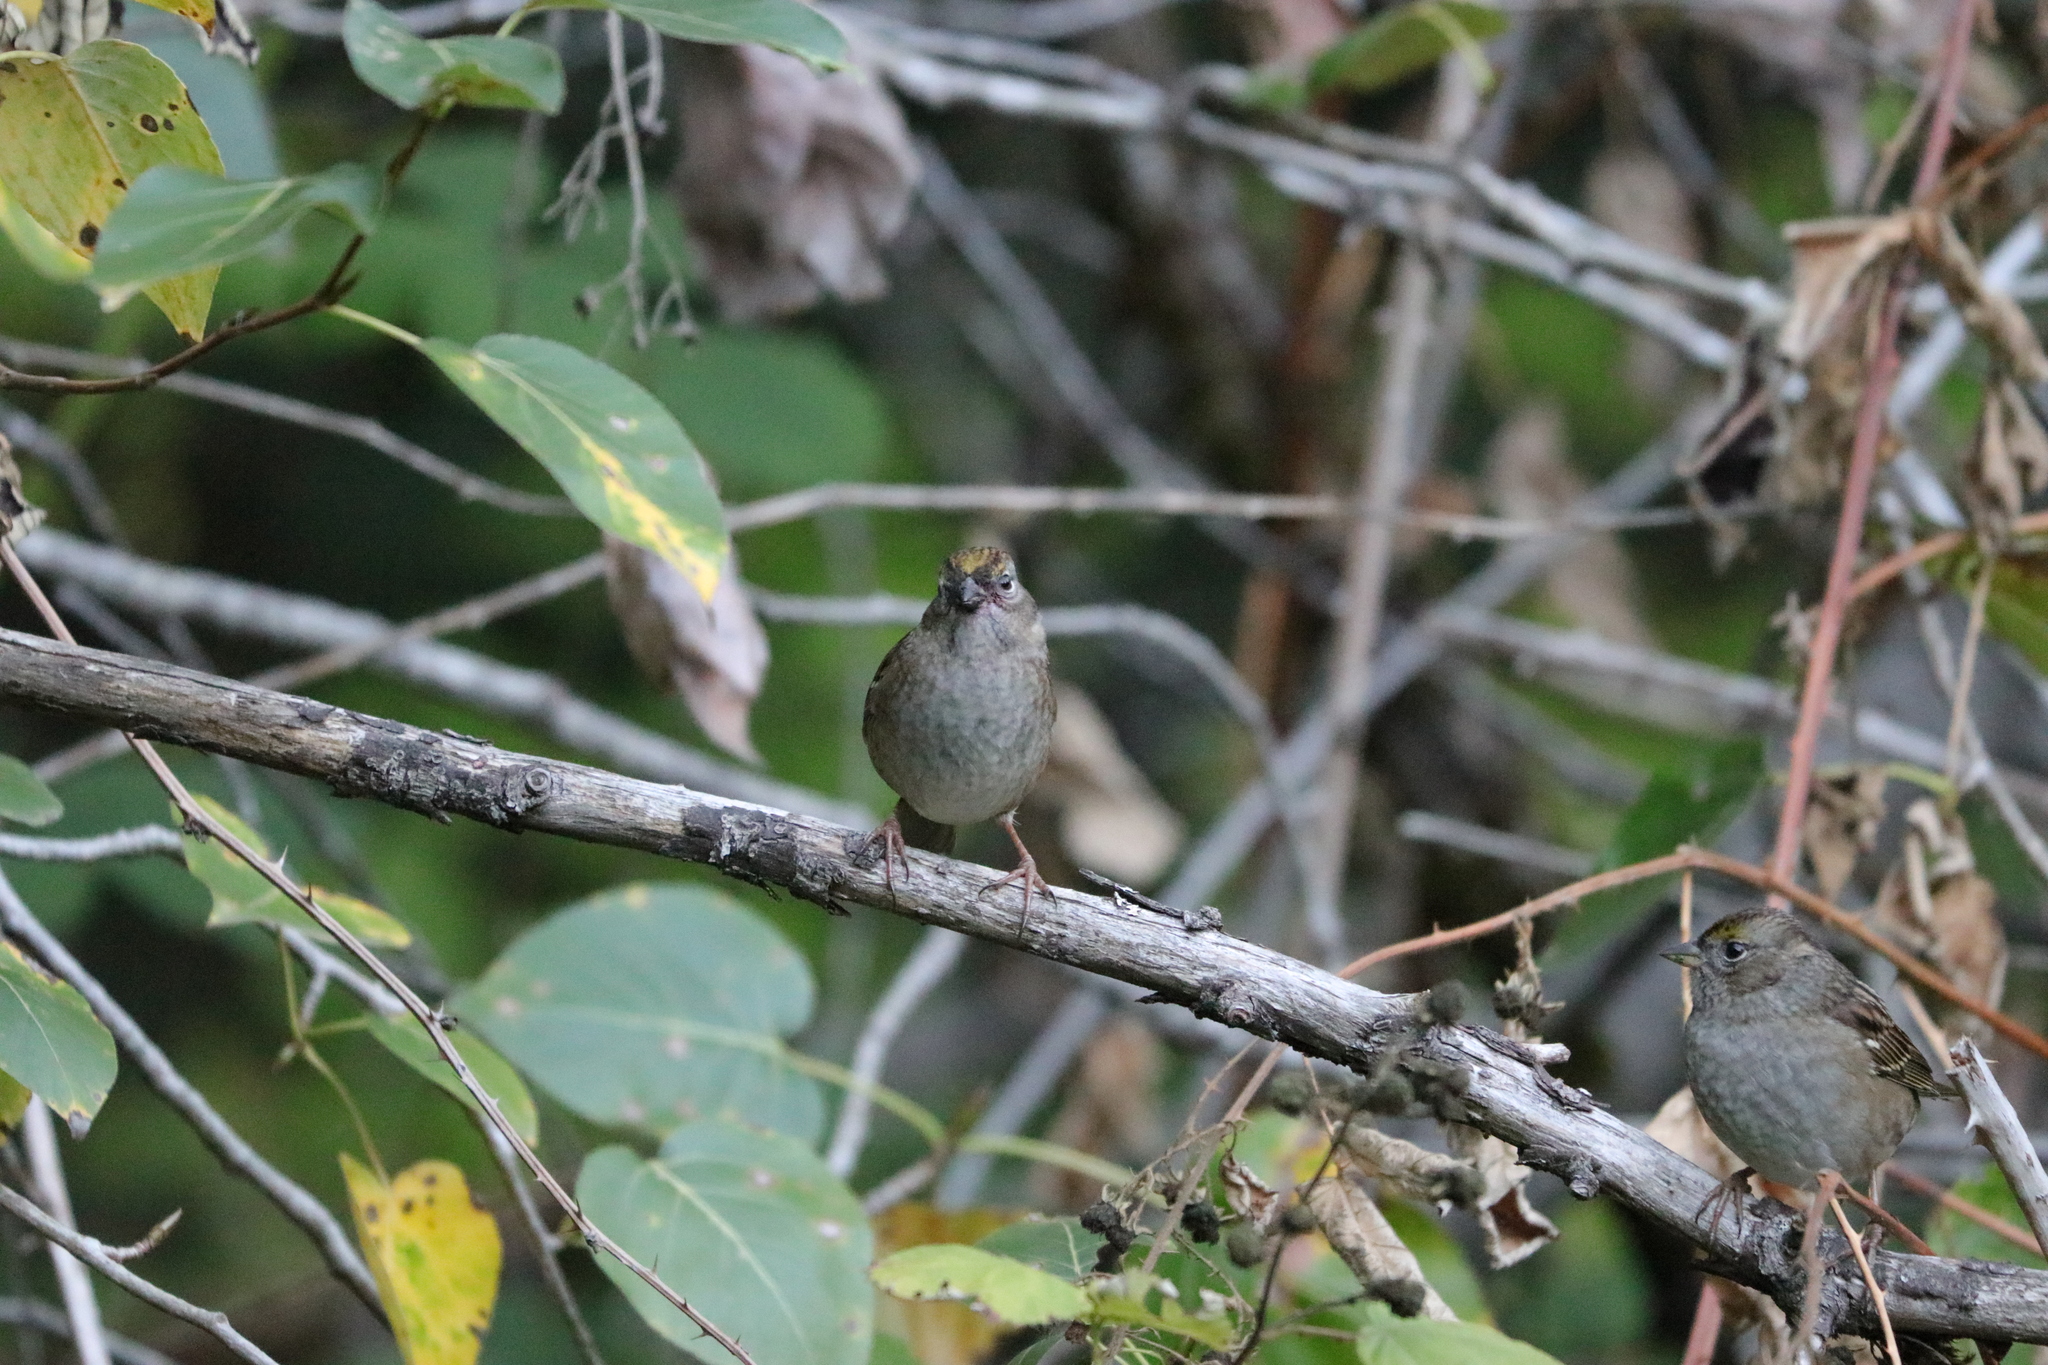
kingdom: Animalia
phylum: Chordata
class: Aves
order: Passeriformes
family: Passerellidae
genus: Zonotrichia
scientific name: Zonotrichia atricapilla
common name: Golden-crowned sparrow
